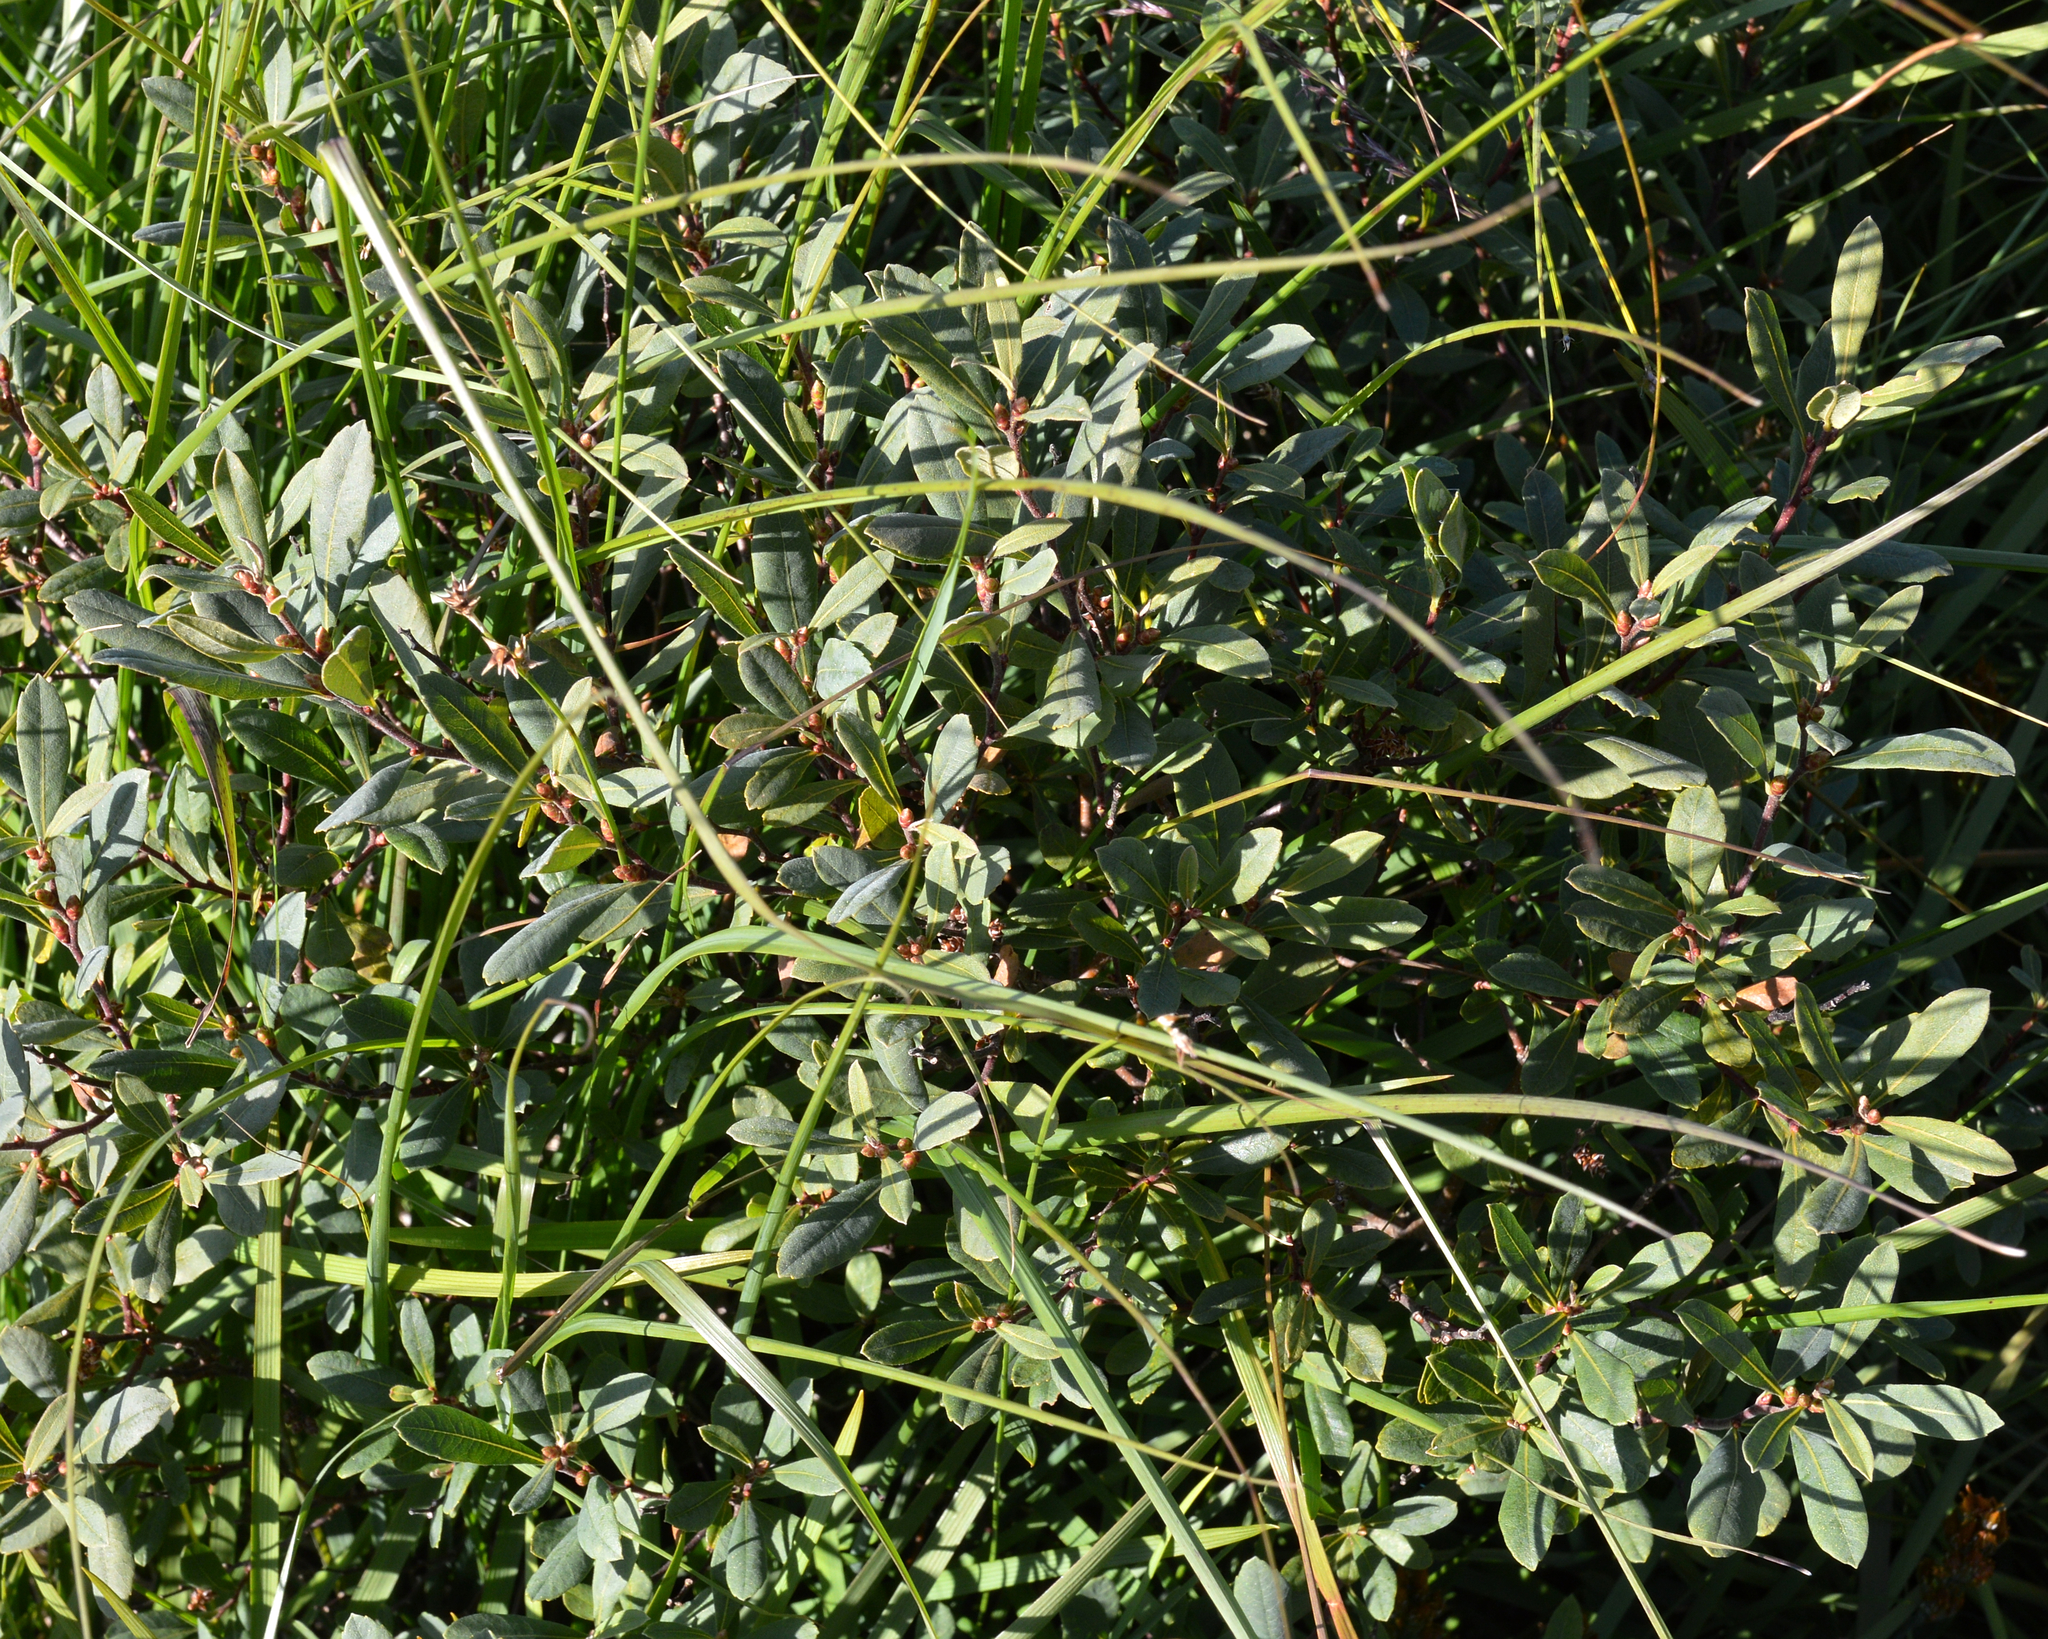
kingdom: Plantae
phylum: Tracheophyta
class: Magnoliopsida
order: Fagales
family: Myricaceae
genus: Myrica
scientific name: Myrica gale
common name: Sweet gale
